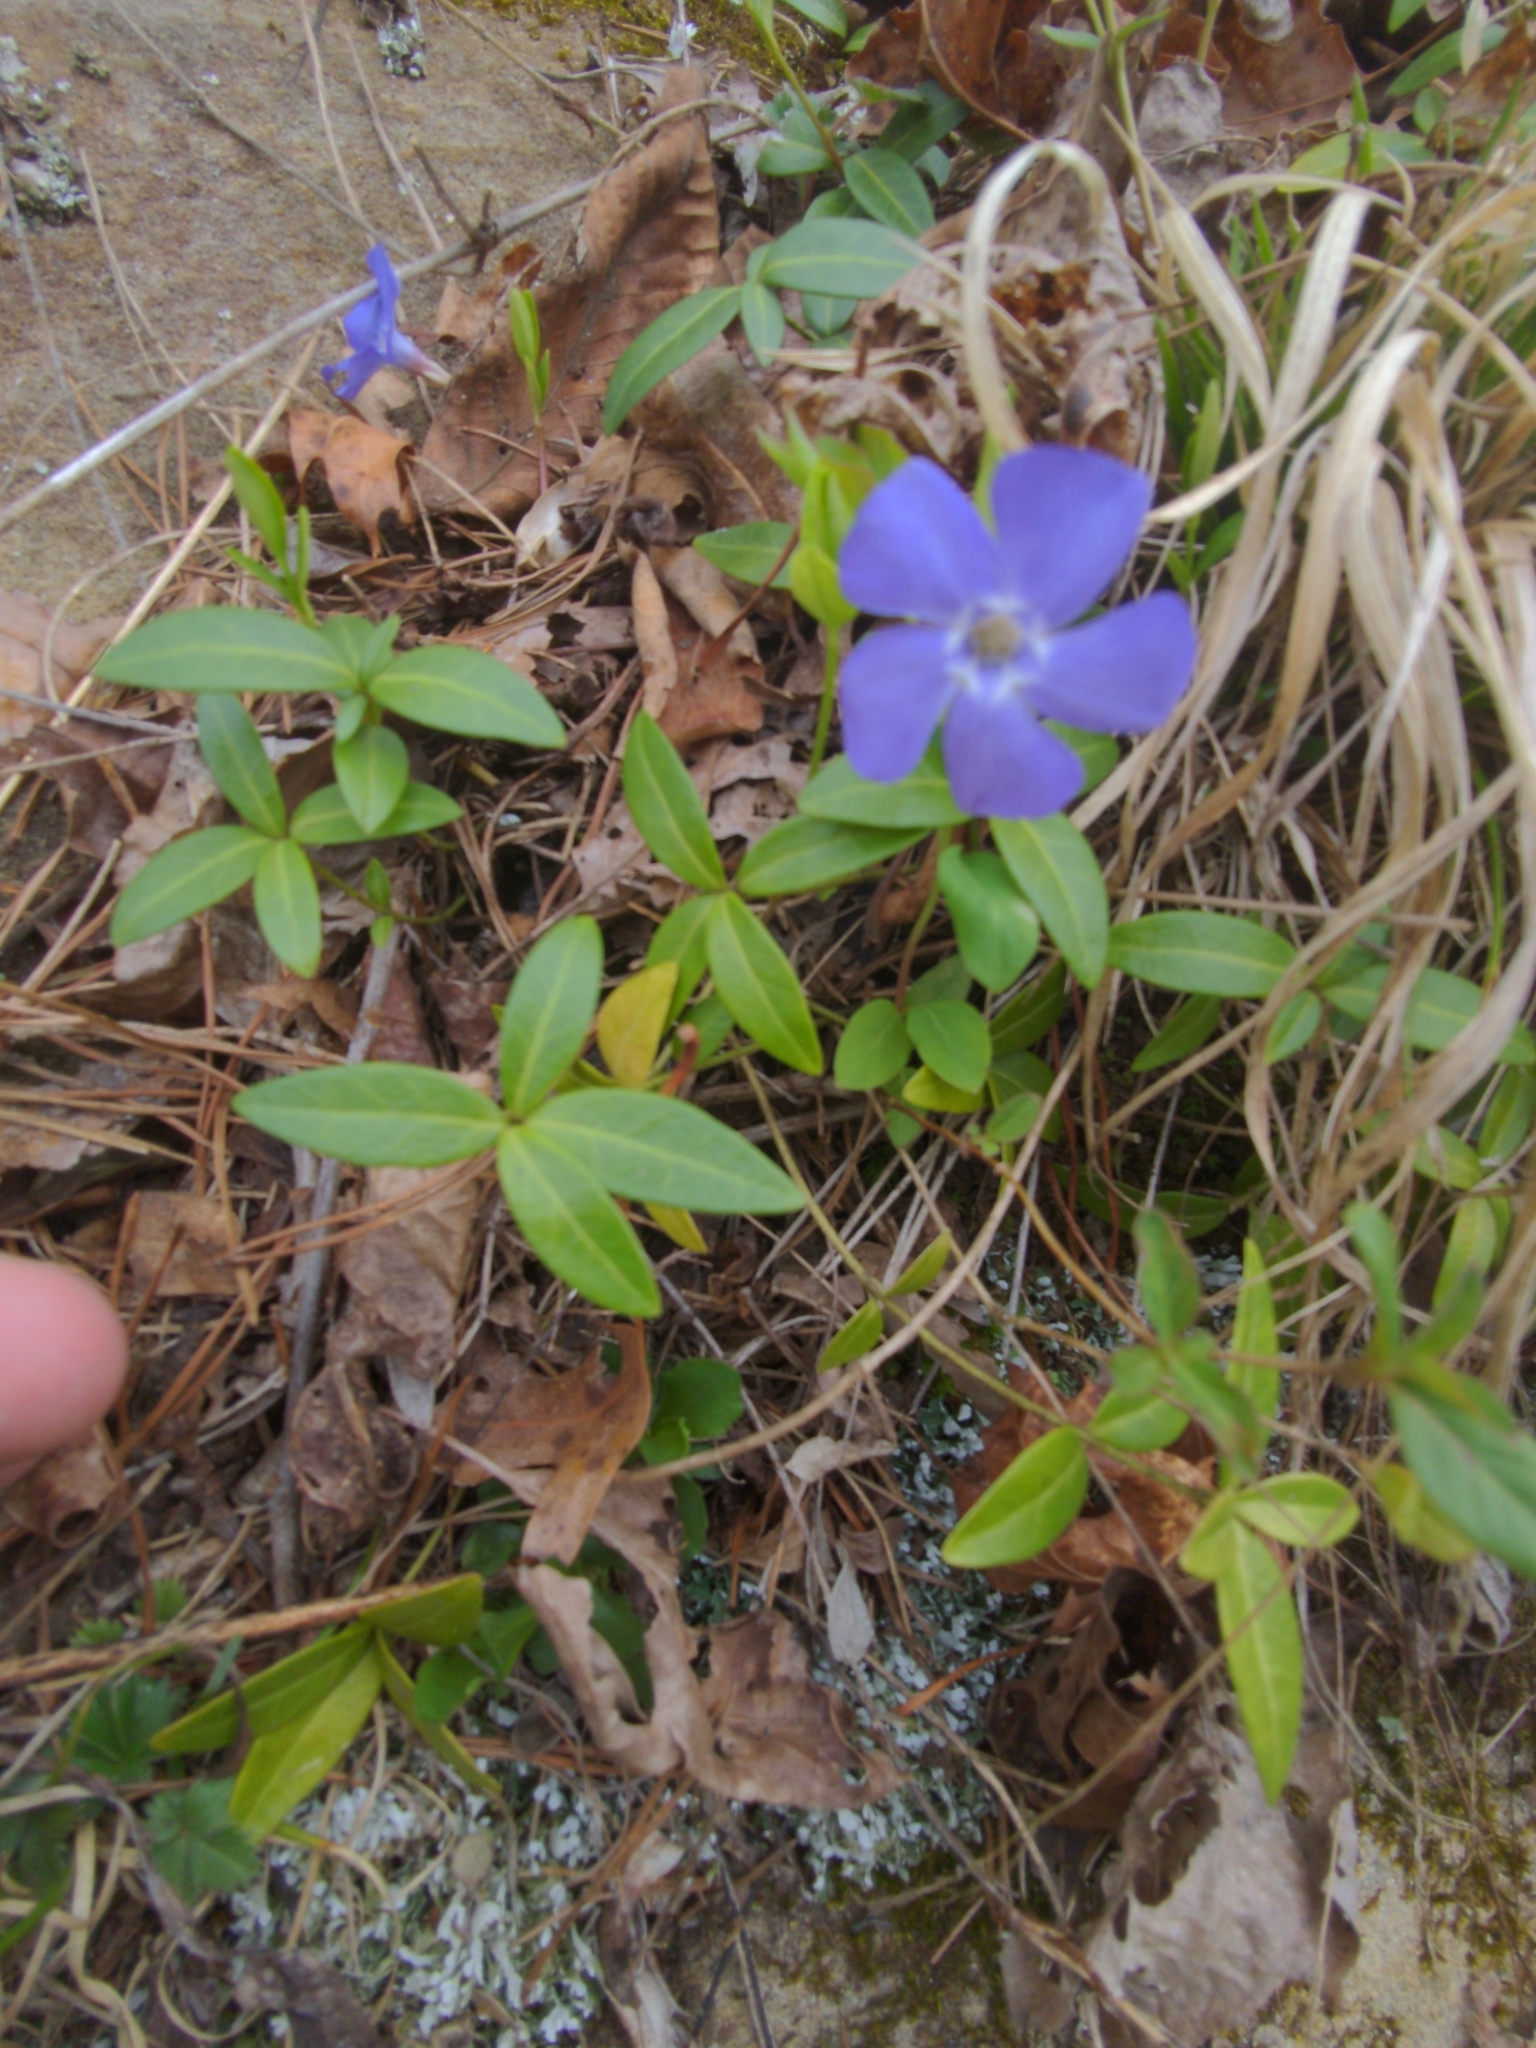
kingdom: Plantae
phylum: Tracheophyta
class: Magnoliopsida
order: Gentianales
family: Apocynaceae
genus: Vinca
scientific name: Vinca minor
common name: Lesser periwinkle
